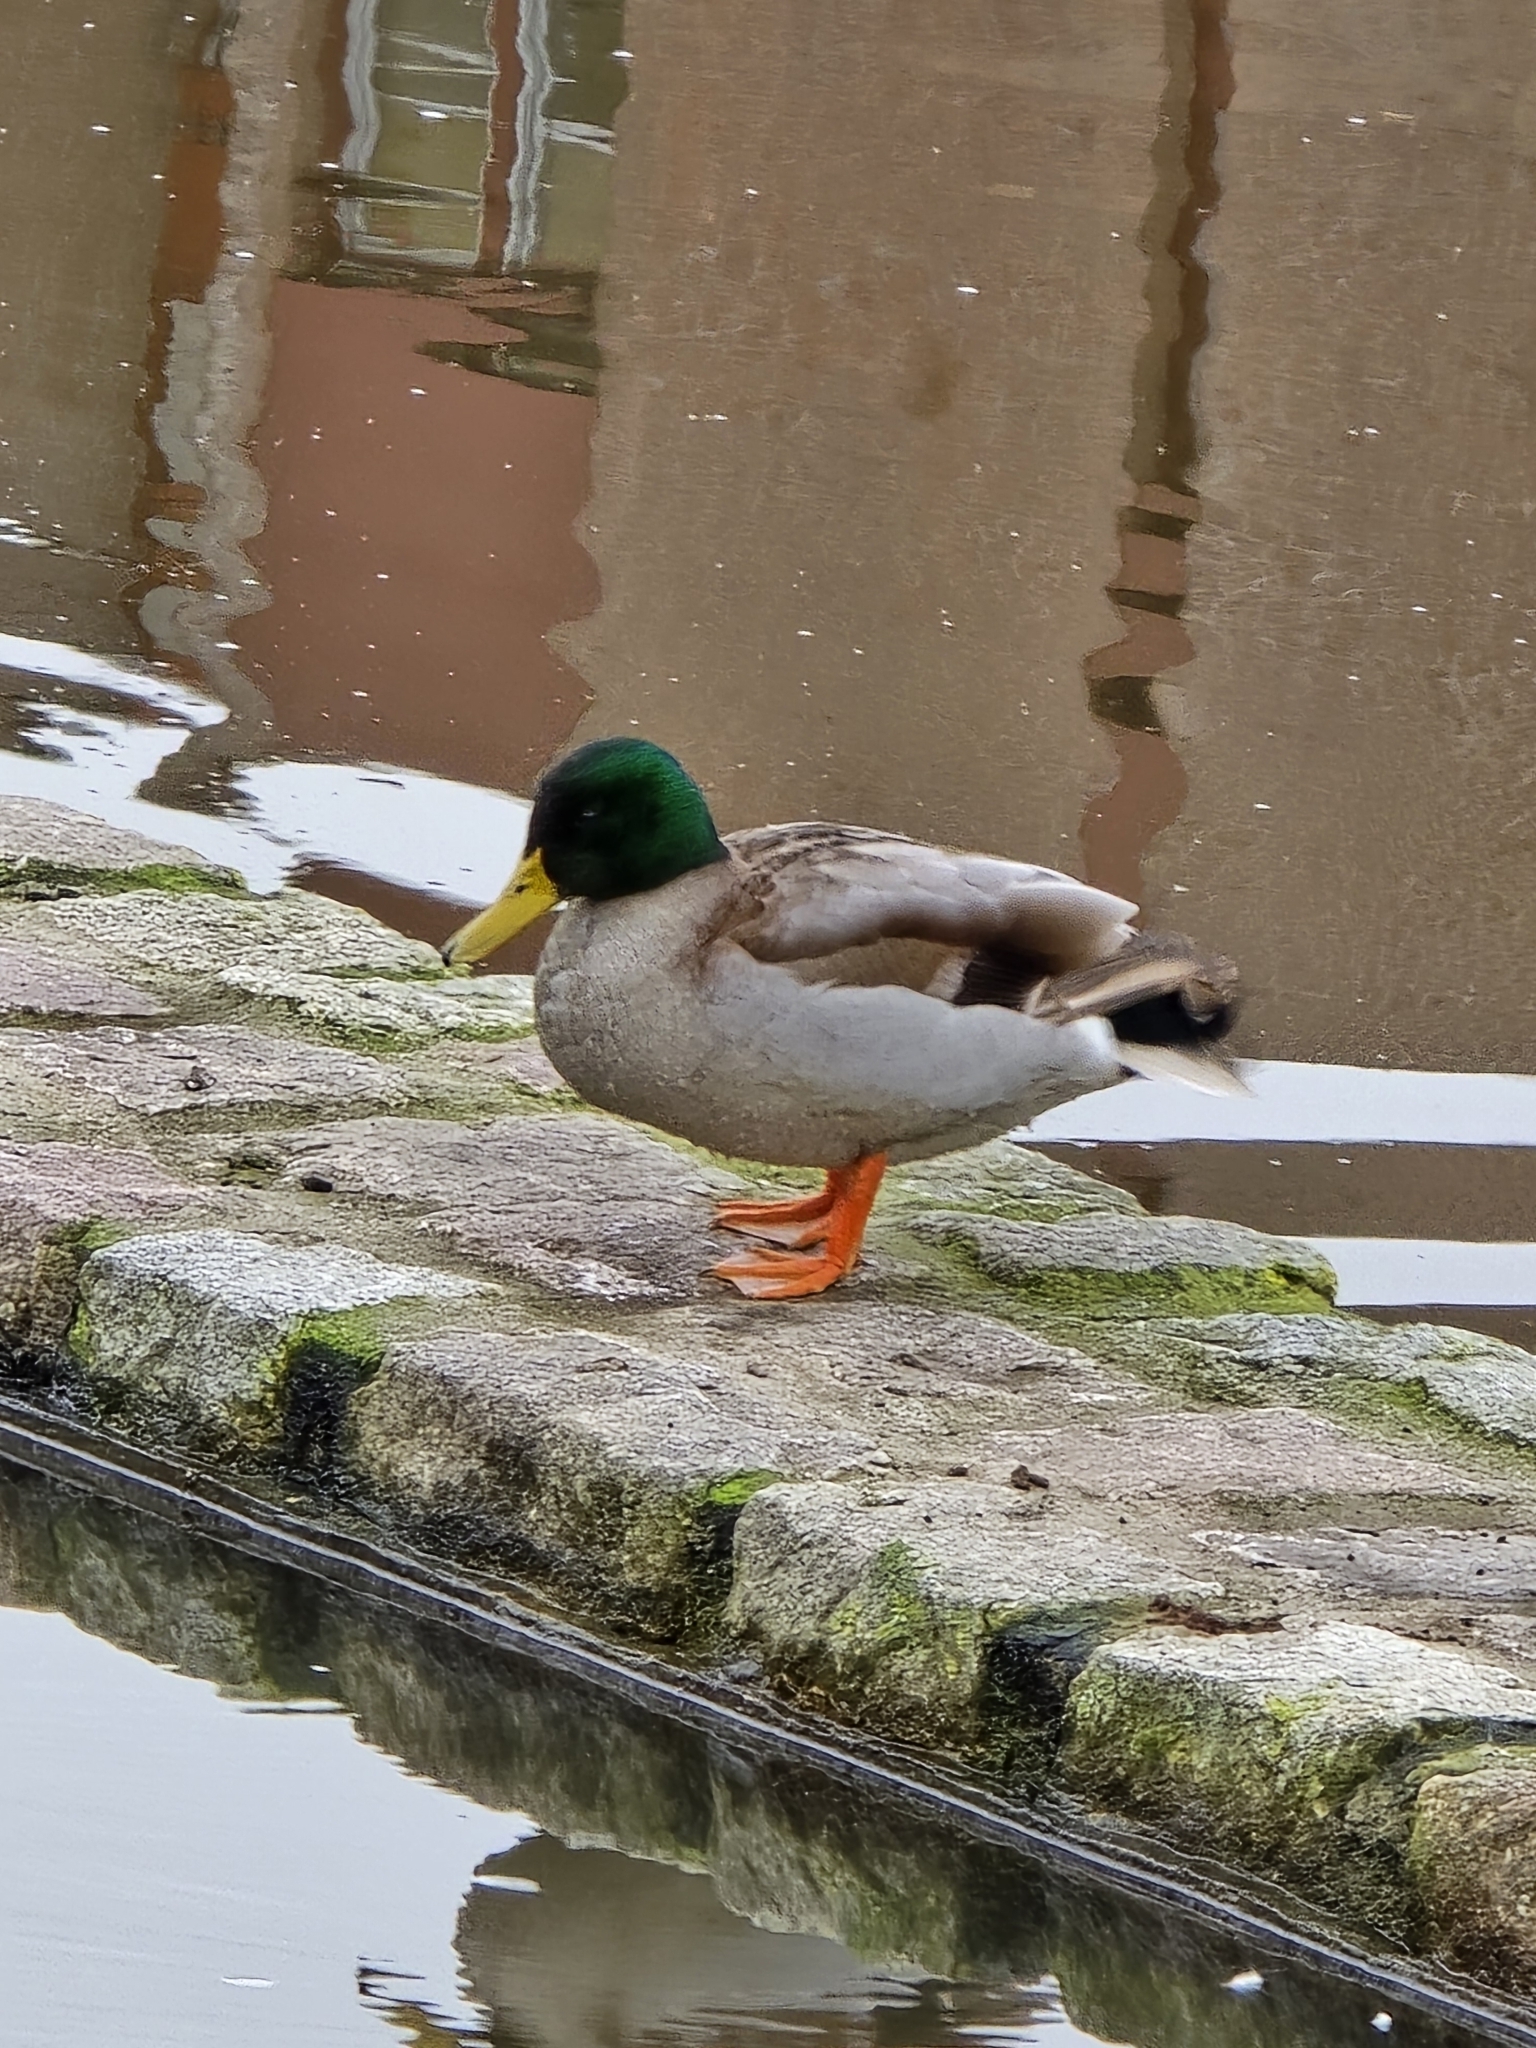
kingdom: Animalia
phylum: Chordata
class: Aves
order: Anseriformes
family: Anatidae
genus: Anas
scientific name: Anas platyrhynchos
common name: Mallard
